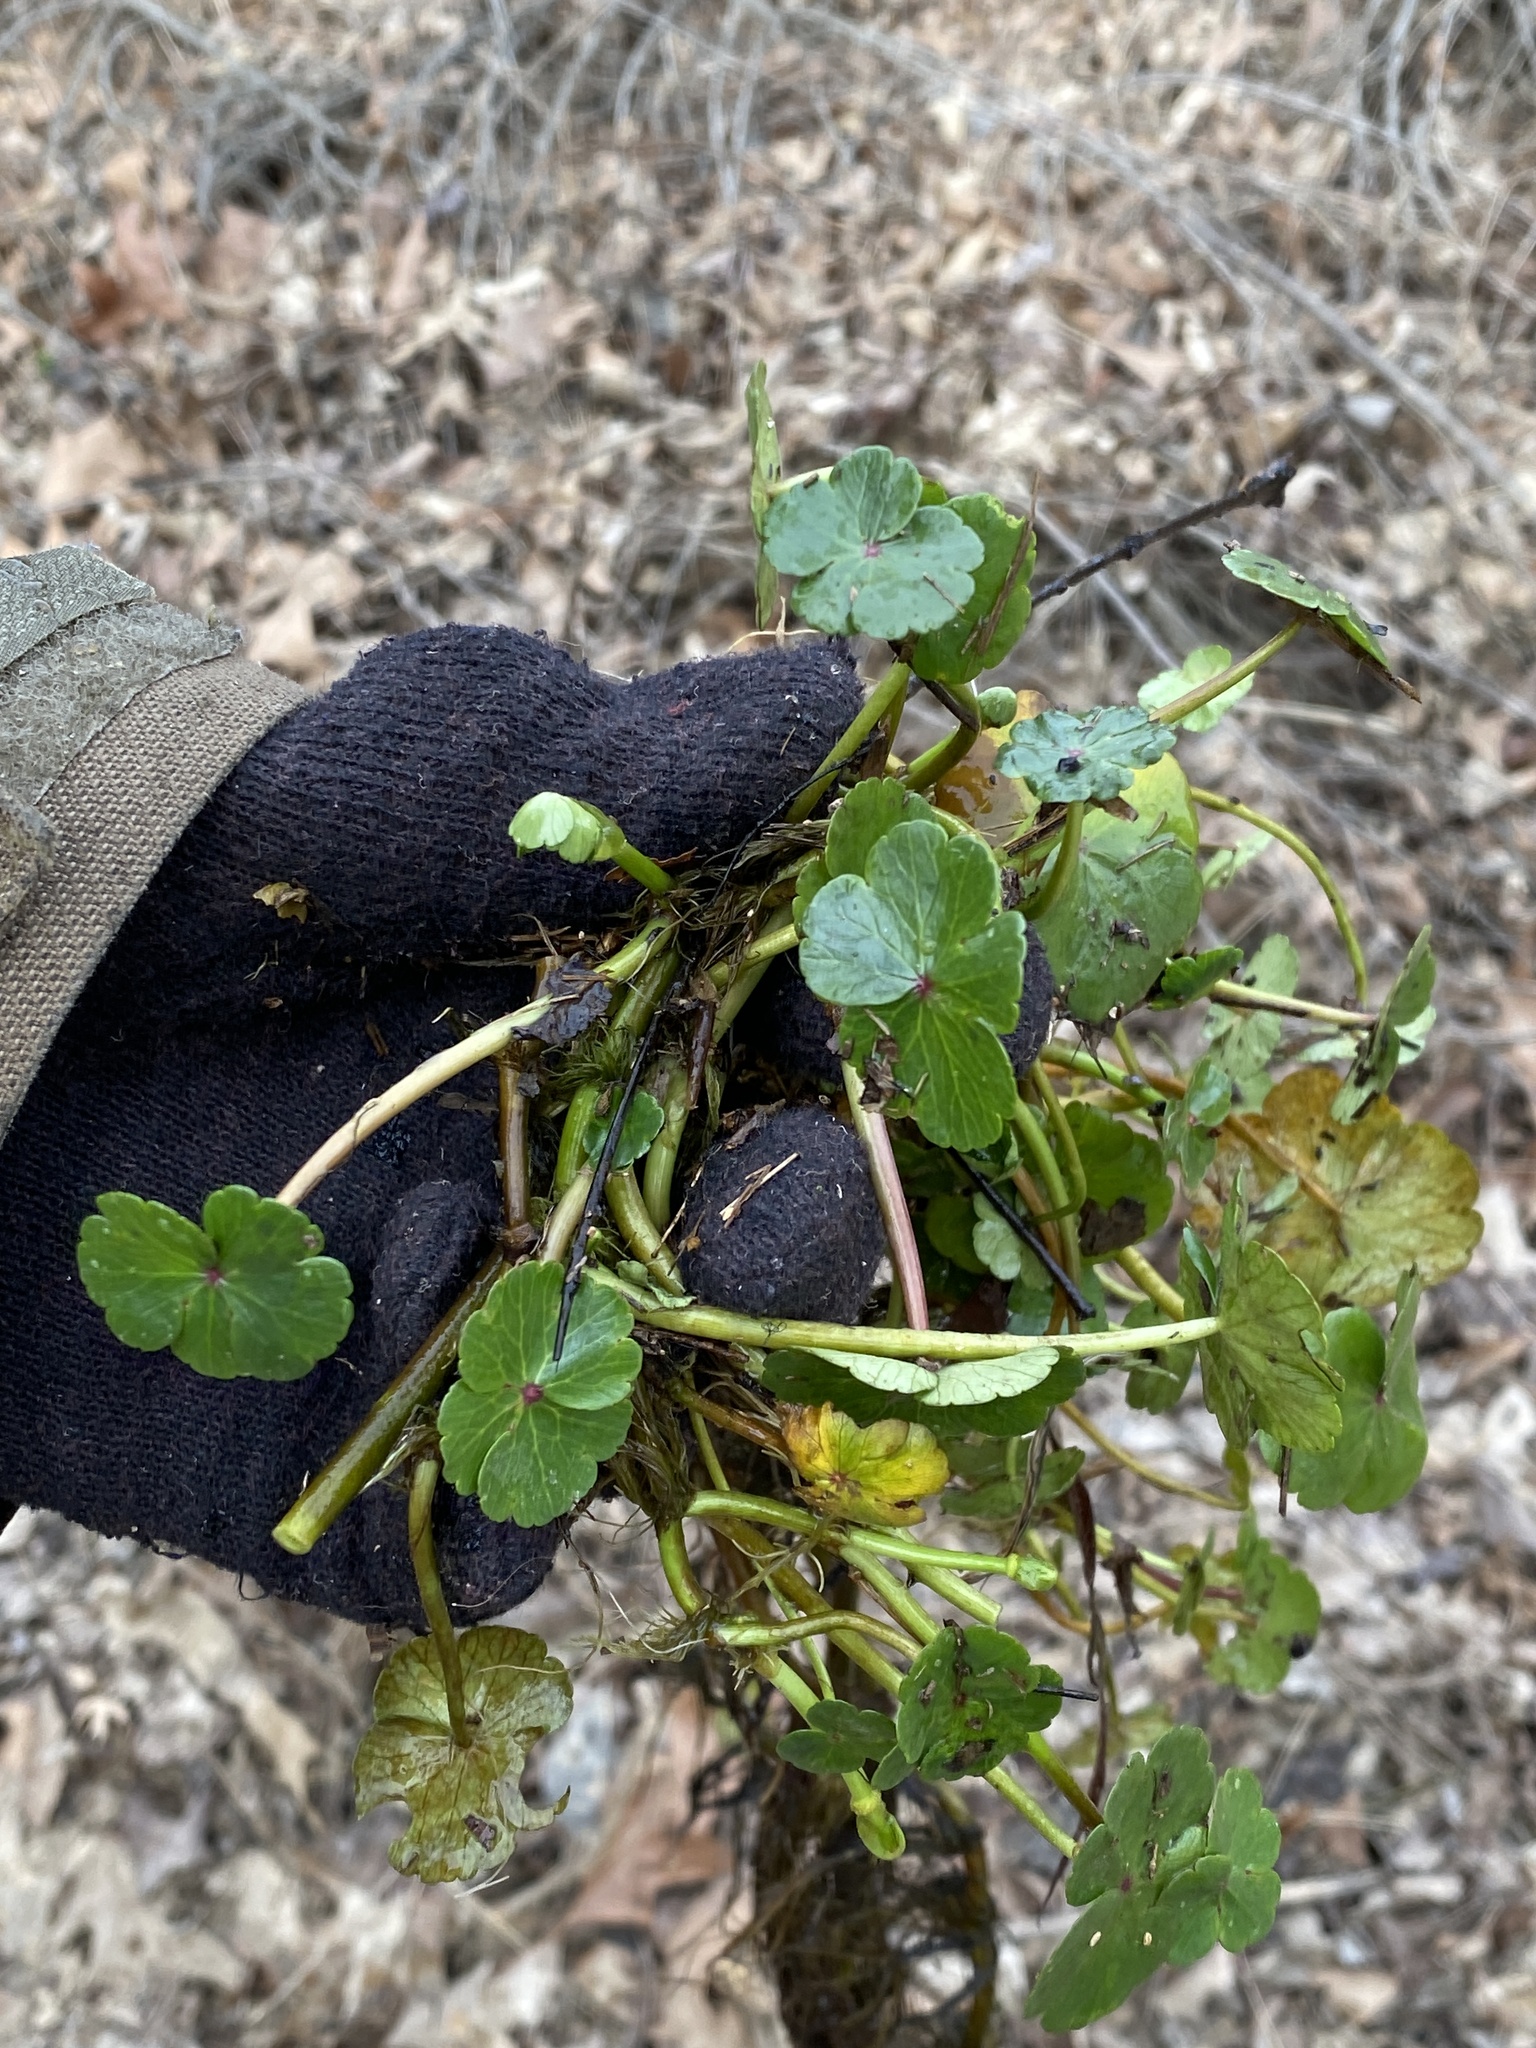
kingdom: Plantae
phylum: Tracheophyta
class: Magnoliopsida
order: Apiales
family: Araliaceae
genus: Hydrocotyle
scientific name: Hydrocotyle ranunculoides
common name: Floating pennywort
